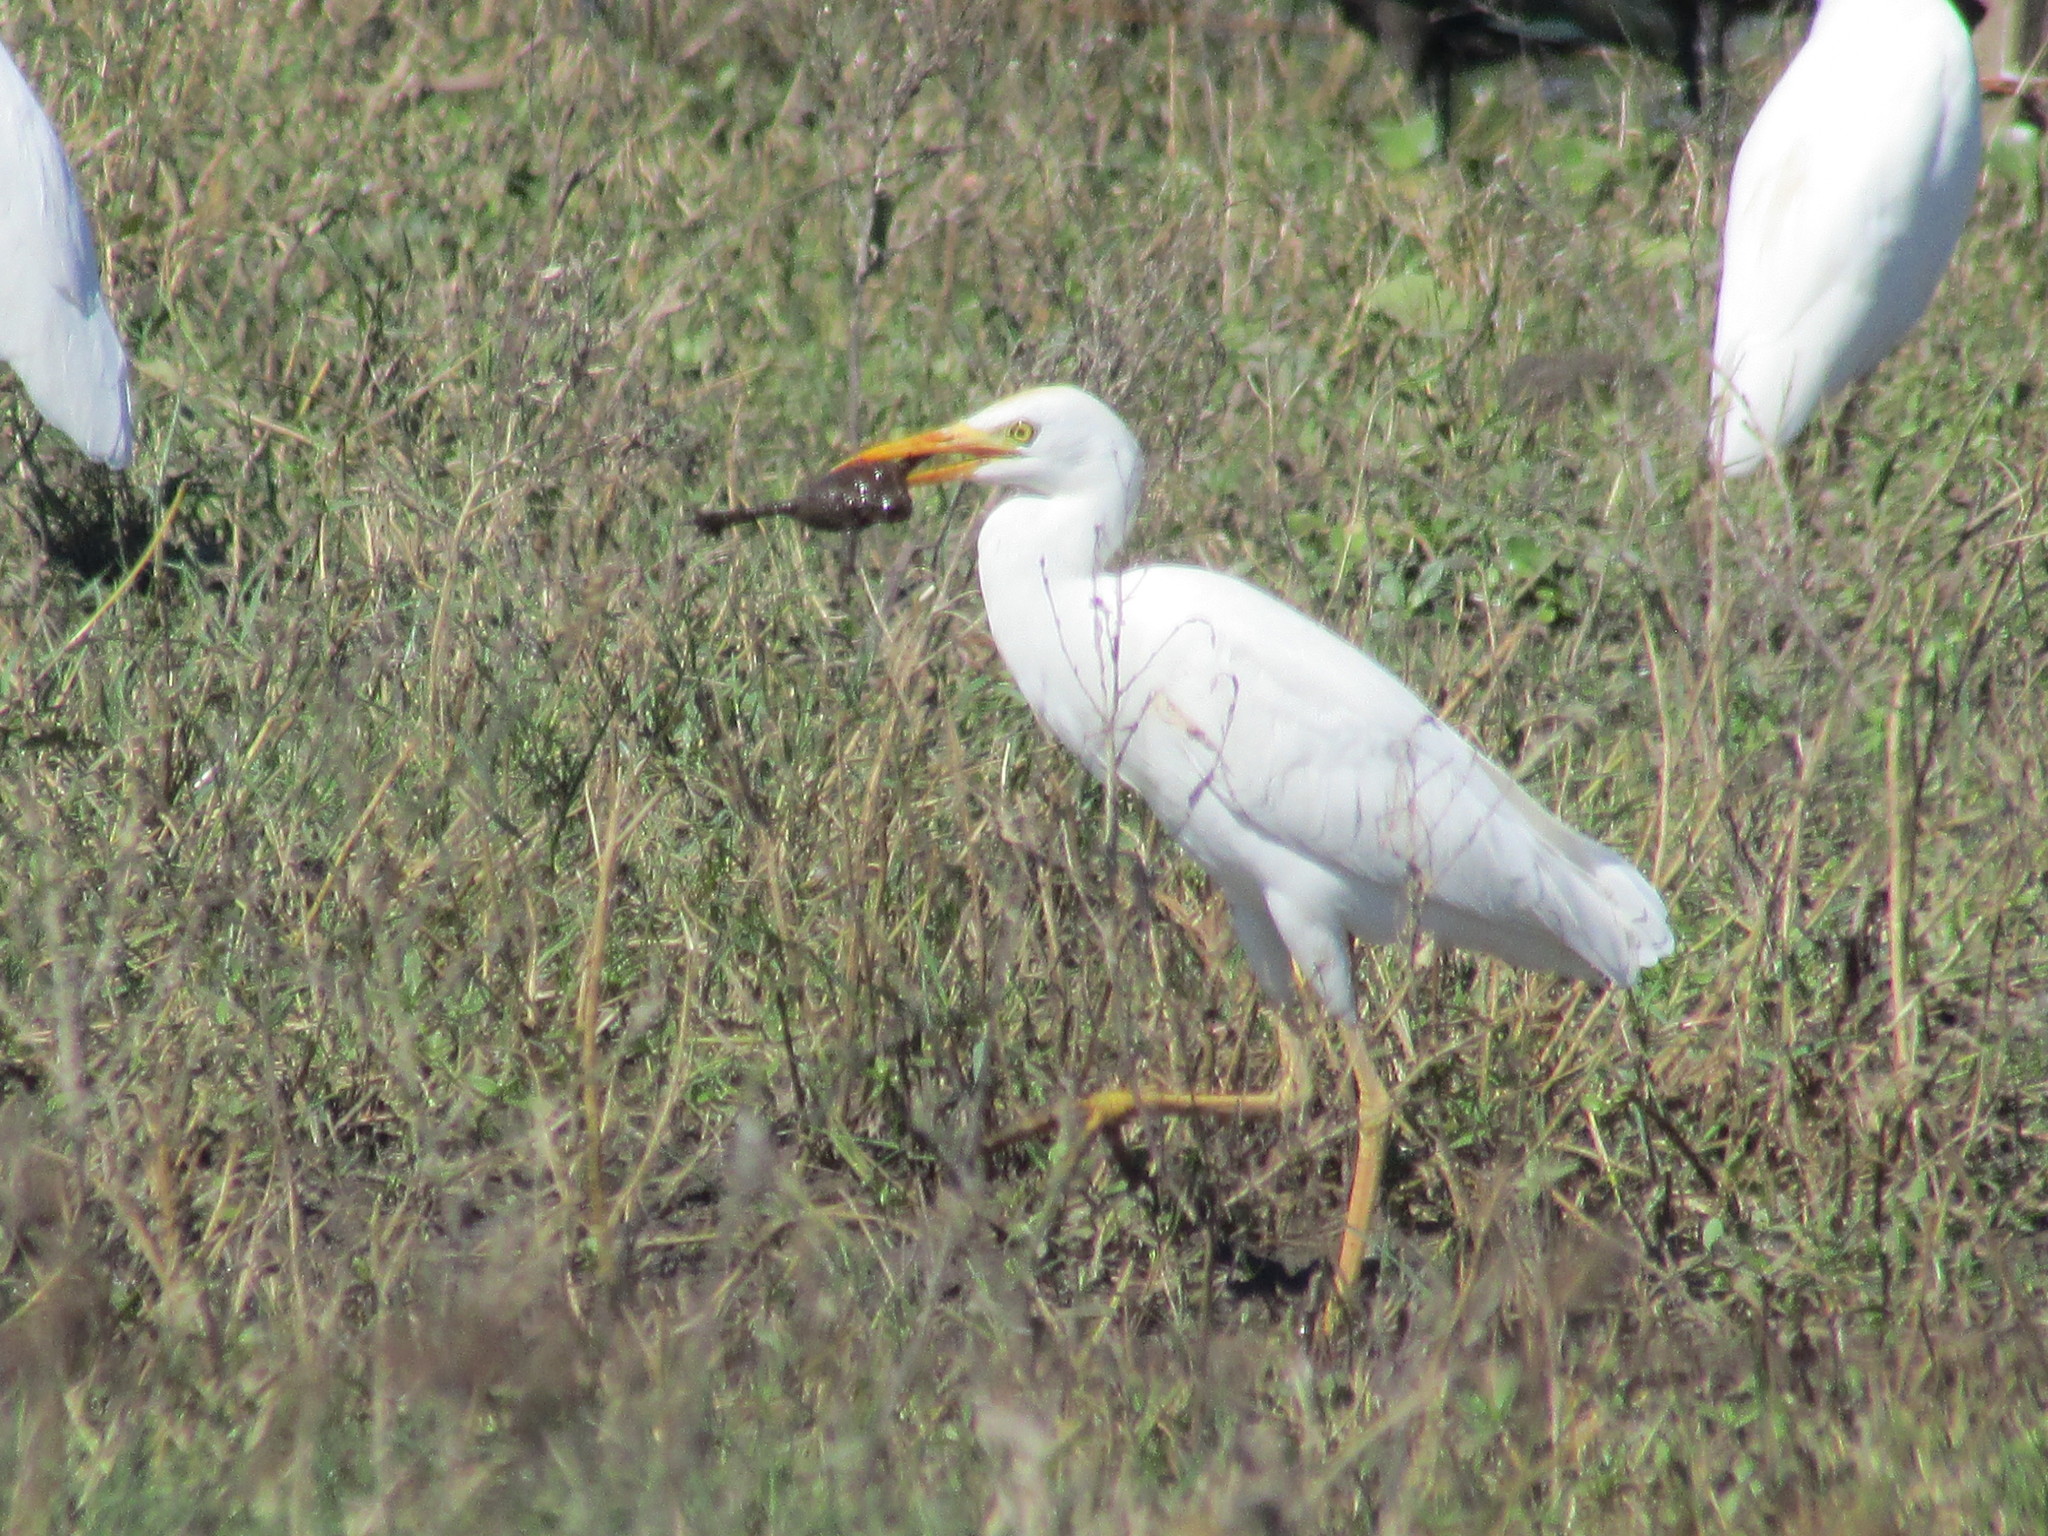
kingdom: Animalia
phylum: Chordata
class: Aves
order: Pelecaniformes
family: Ardeidae
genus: Bubulcus
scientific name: Bubulcus ibis
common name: Cattle egret
